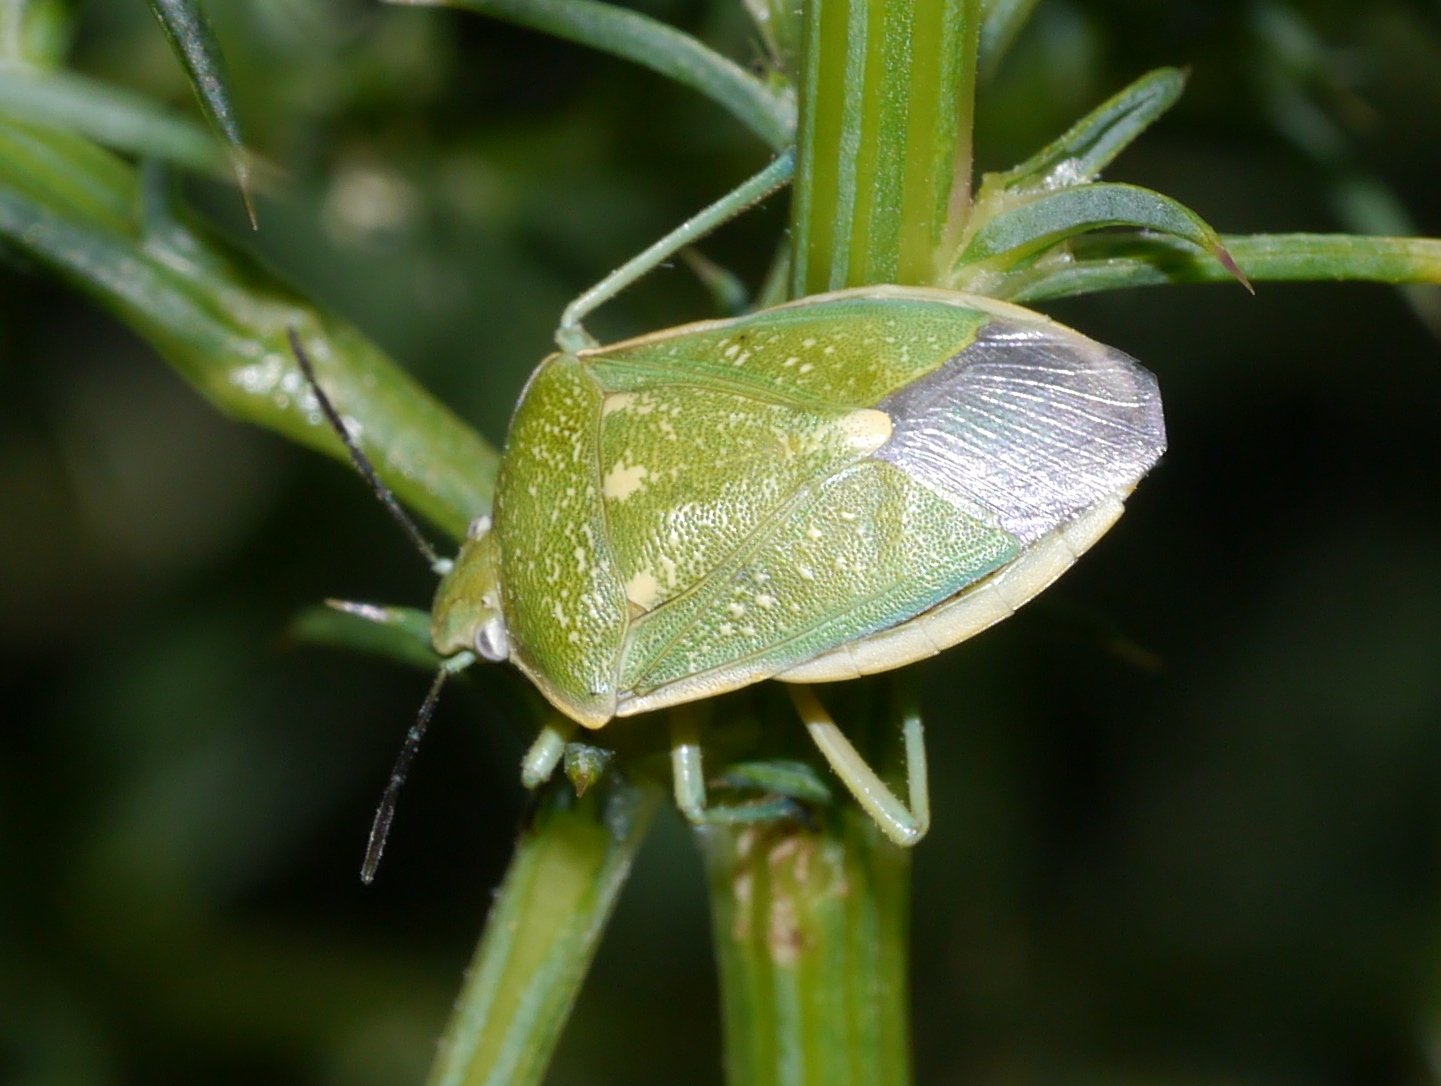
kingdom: Animalia
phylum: Arthropoda
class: Insecta
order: Hemiptera
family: Pentatomidae
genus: Chlorochroa
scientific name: Chlorochroa sayi
